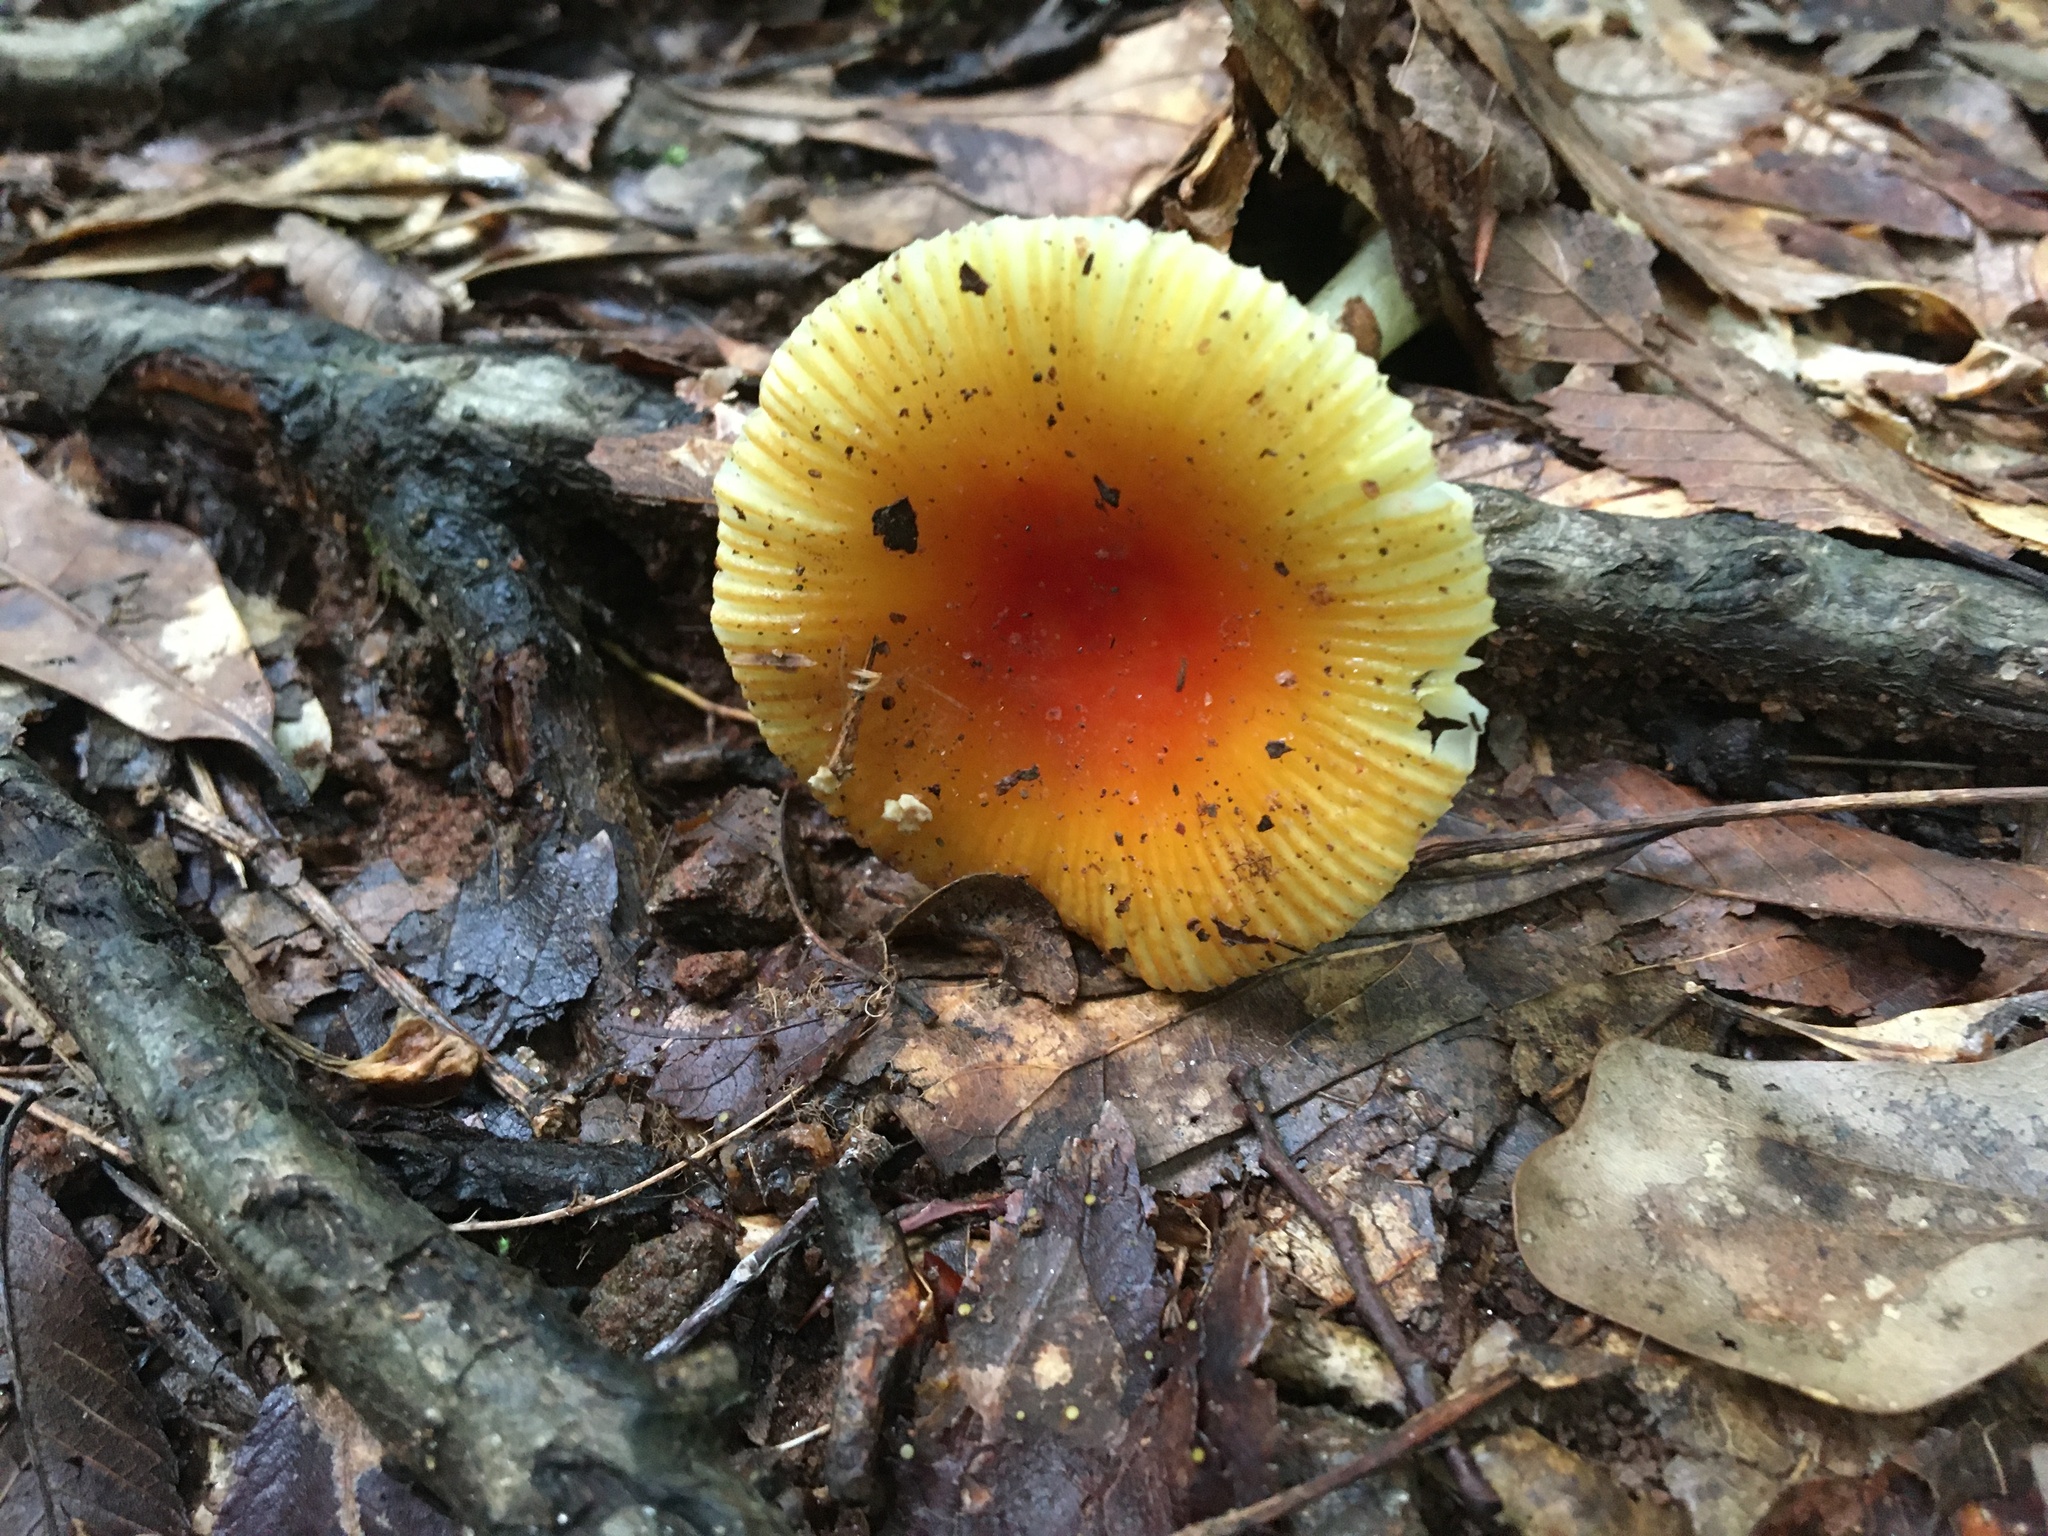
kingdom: Fungi
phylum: Basidiomycota
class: Agaricomycetes
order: Agaricales
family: Amanitaceae
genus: Amanita
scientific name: Amanita parcivolvata
